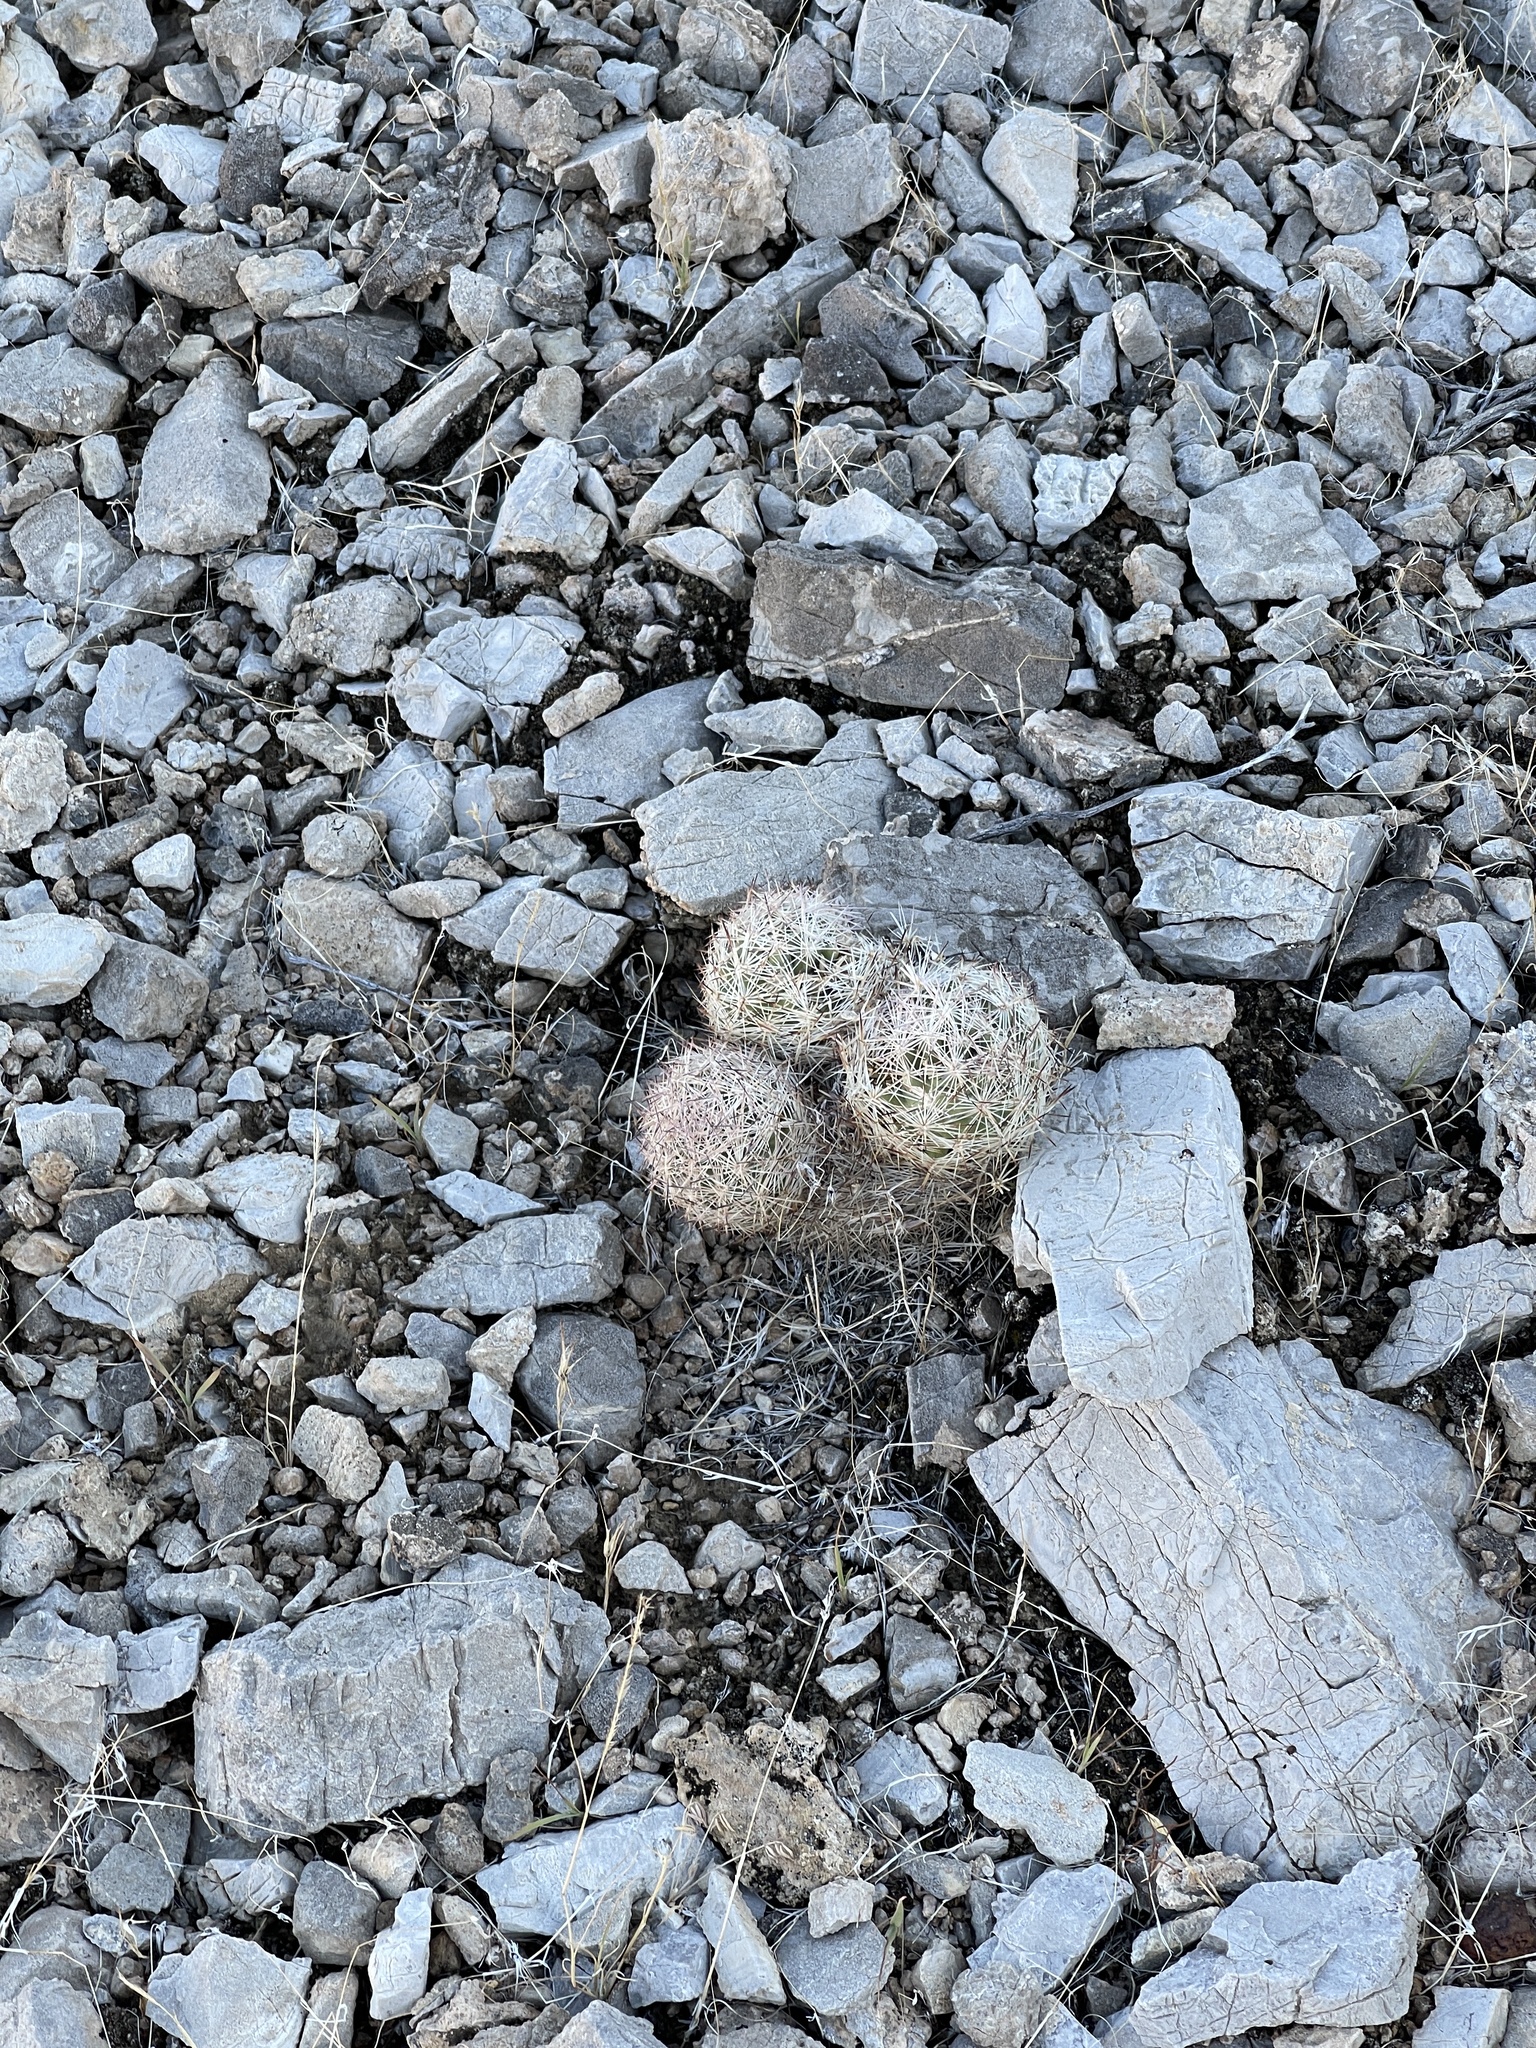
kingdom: Plantae
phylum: Tracheophyta
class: Magnoliopsida
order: Caryophyllales
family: Cactaceae
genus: Pelecyphora
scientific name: Pelecyphora dasyacantha
